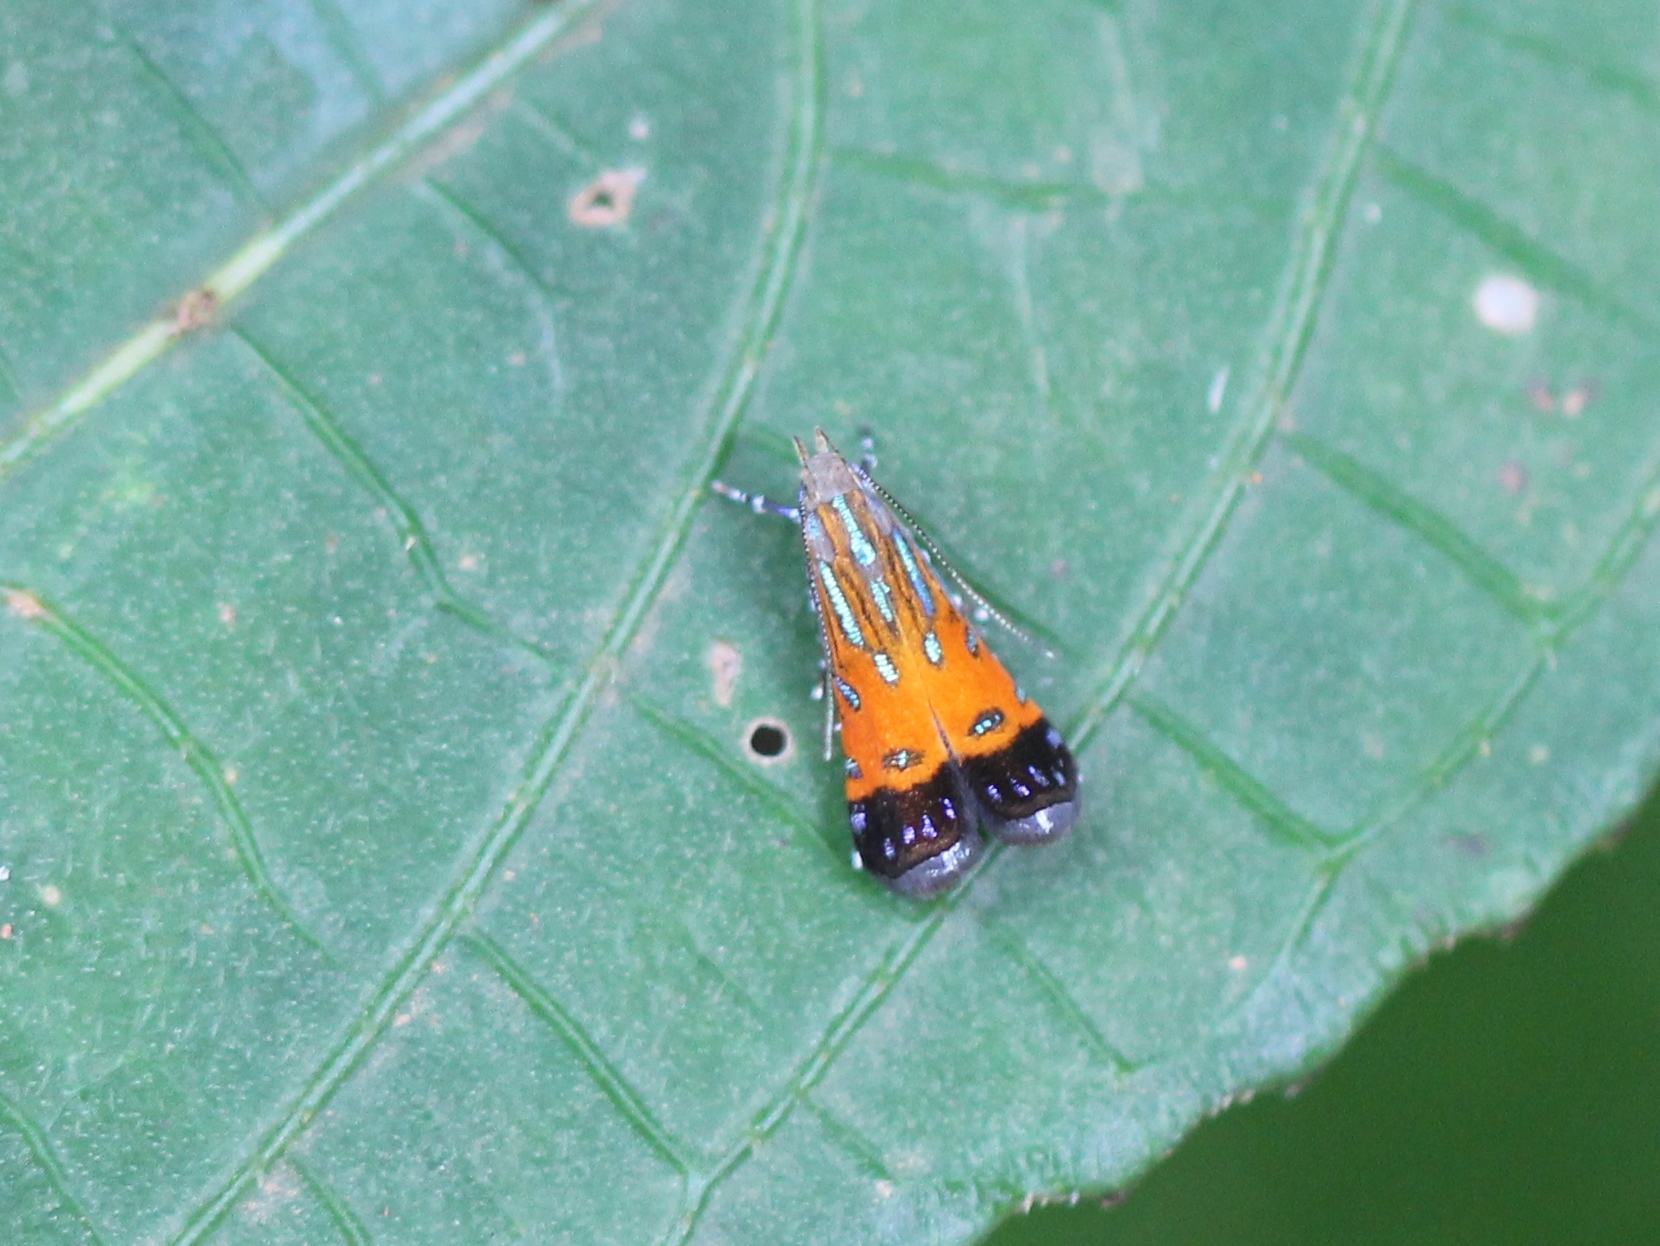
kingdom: Animalia
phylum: Arthropoda
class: Insecta
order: Lepidoptera
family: Gelechiidae
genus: Tricyanaula
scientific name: Tricyanaula aurantiaca
